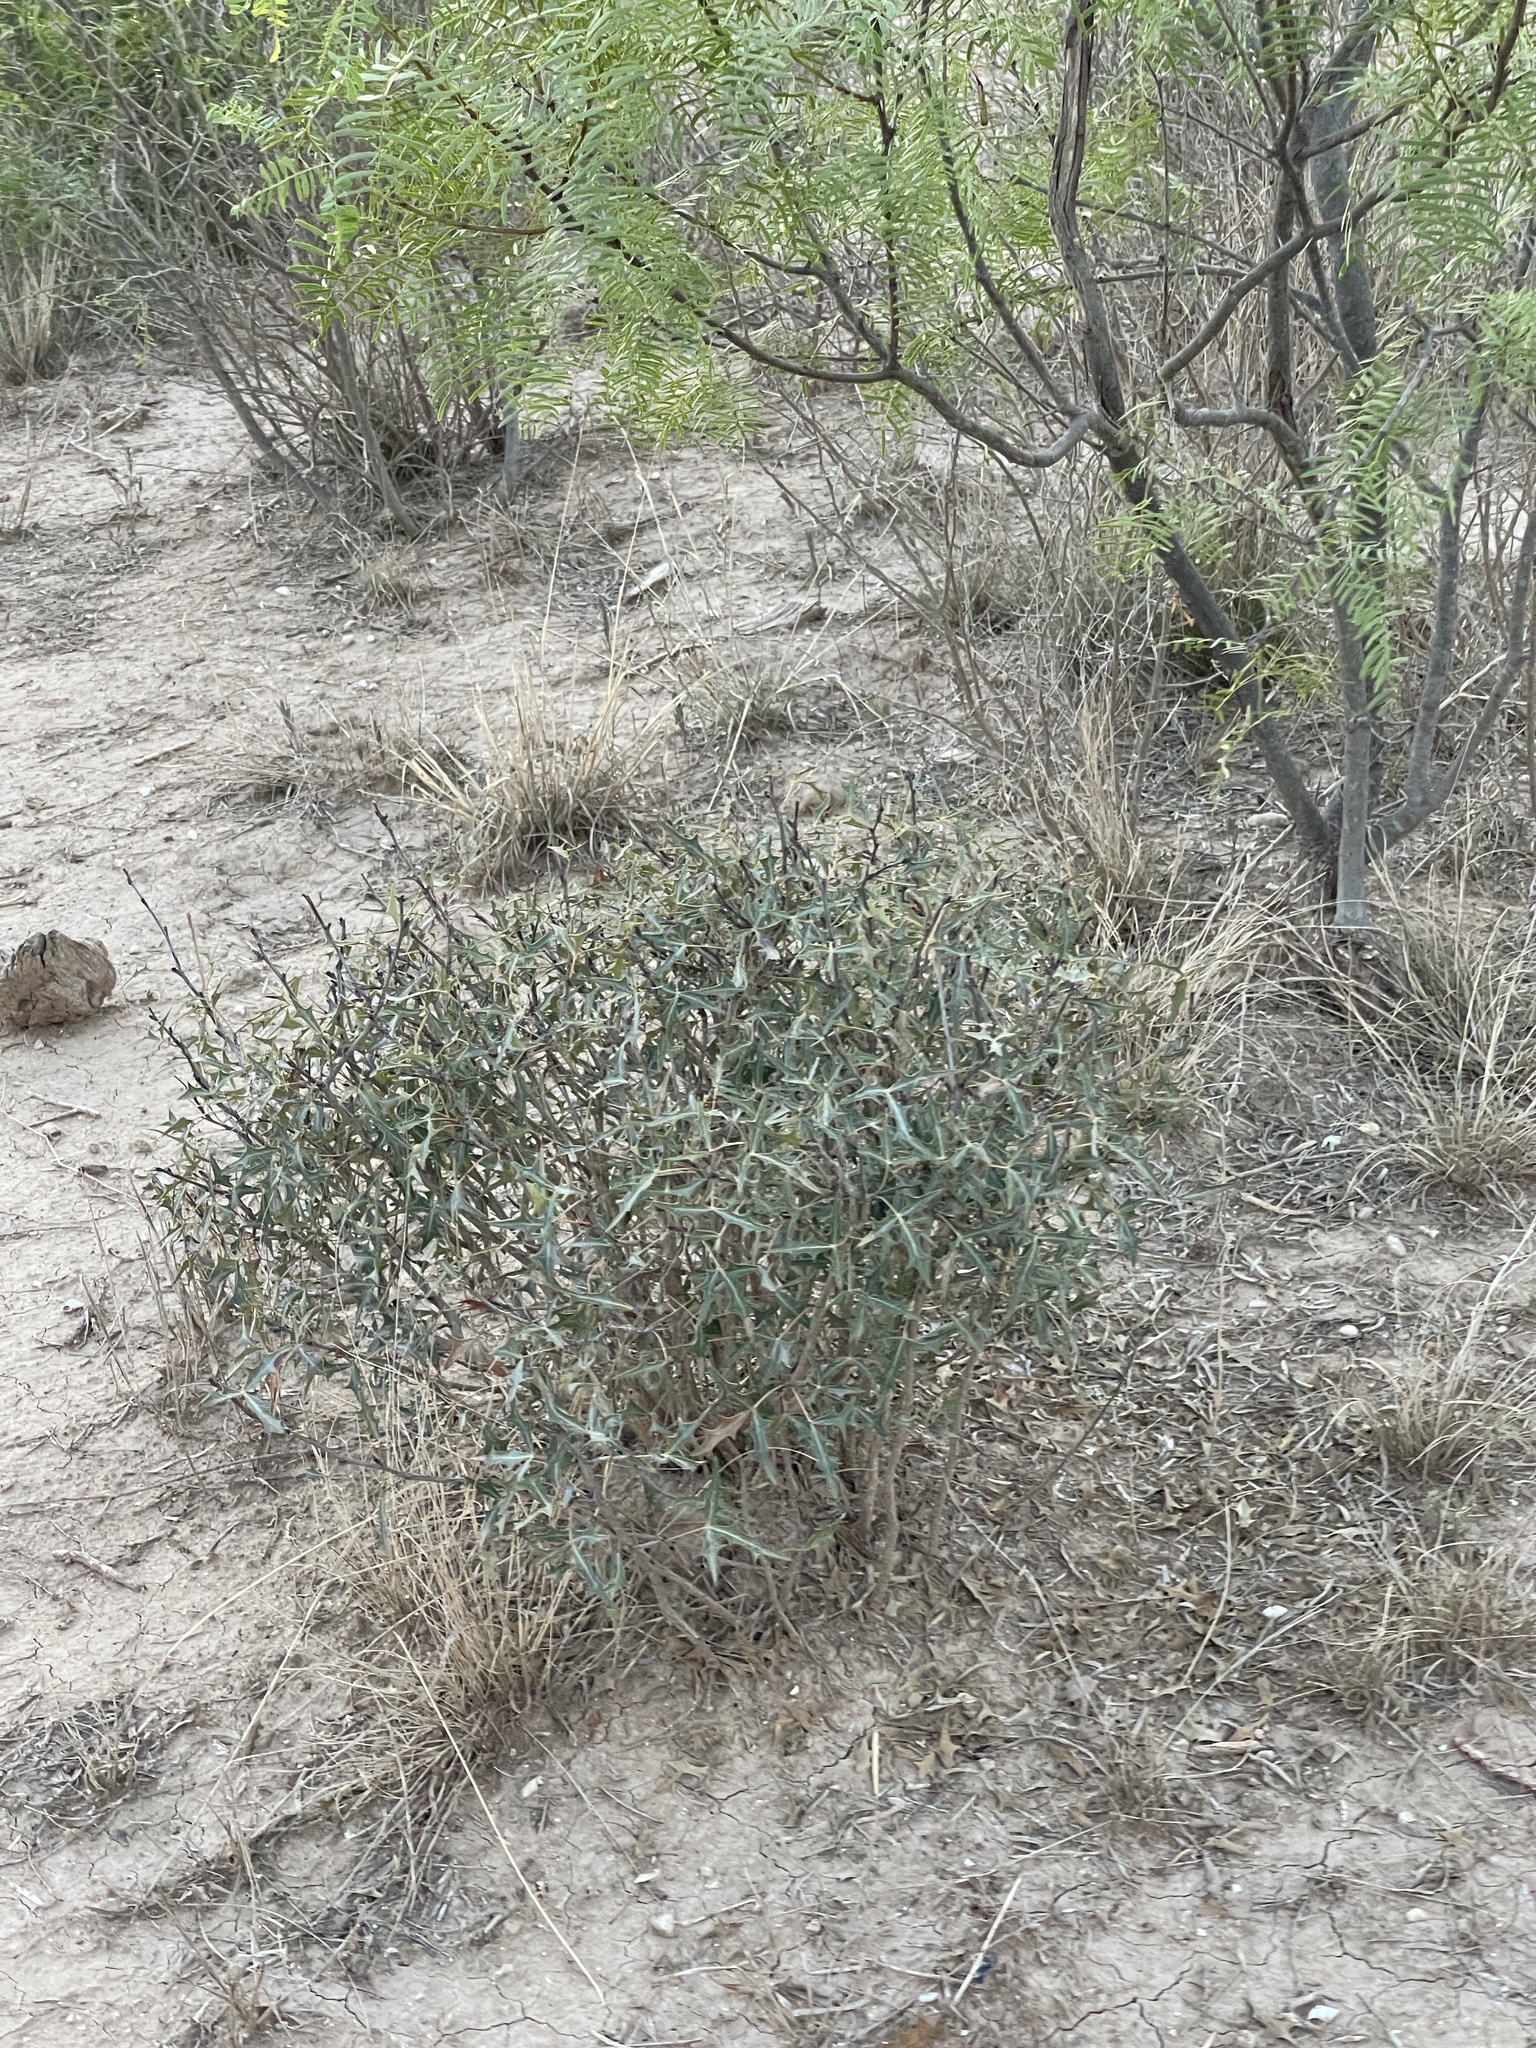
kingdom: Plantae
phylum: Tracheophyta
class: Magnoliopsida
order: Ranunculales
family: Berberidaceae
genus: Alloberberis
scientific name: Alloberberis trifoliolata
